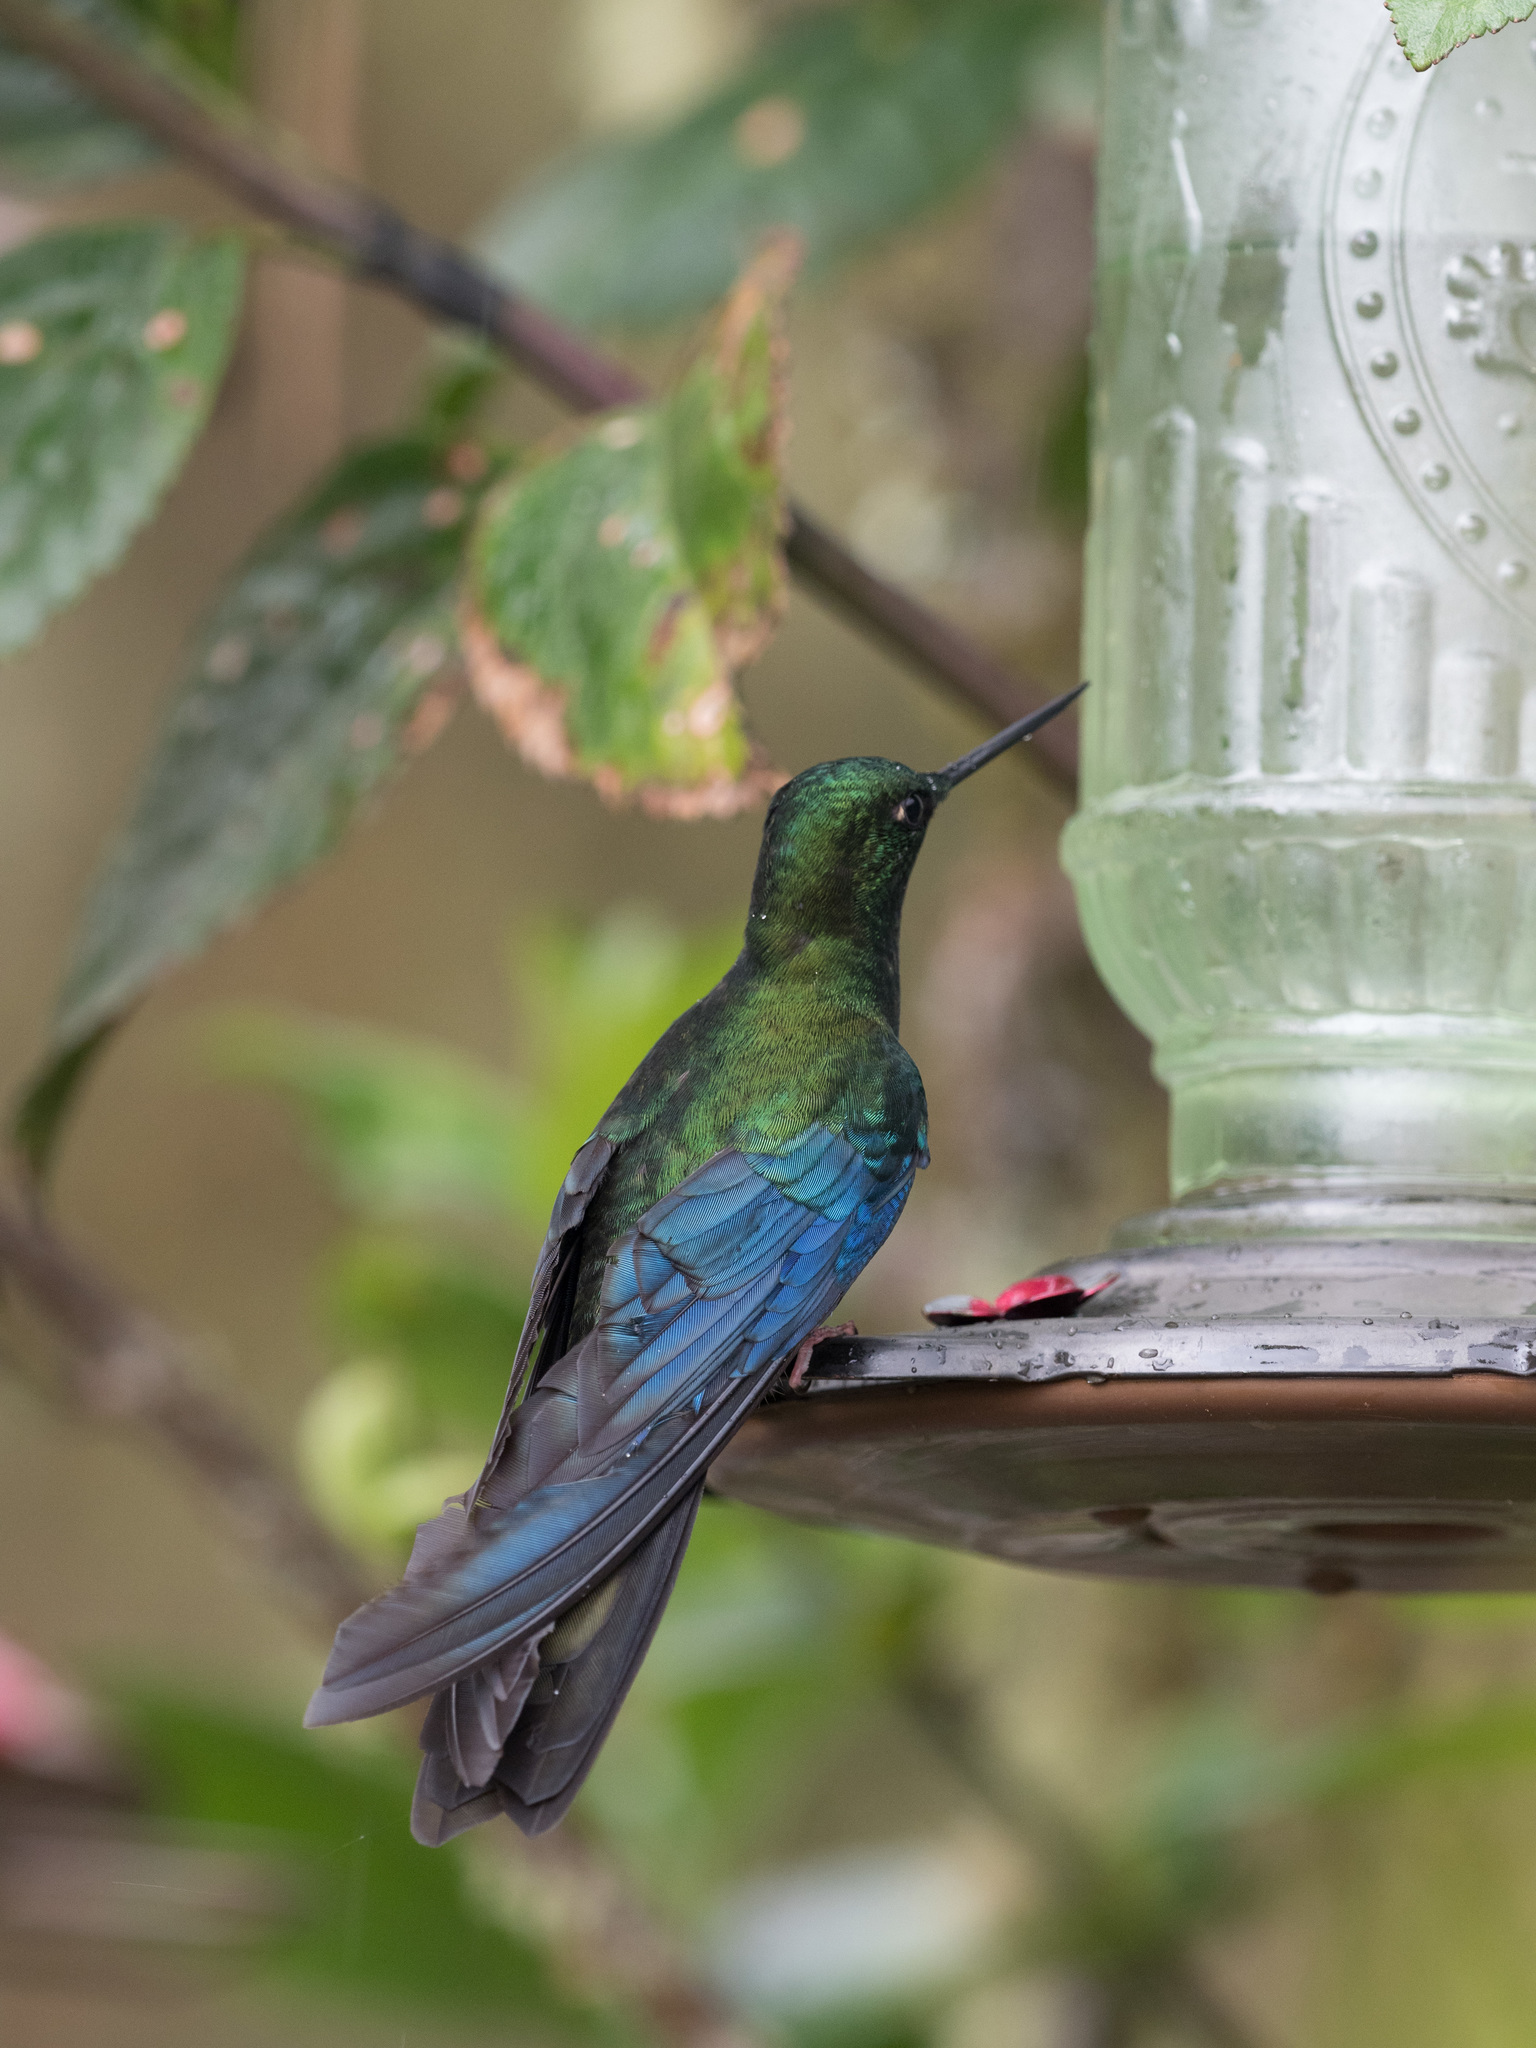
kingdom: Animalia
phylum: Chordata
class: Aves
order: Apodiformes
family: Trochilidae
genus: Pterophanes
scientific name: Pterophanes cyanopterus
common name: Great sapphirewing
